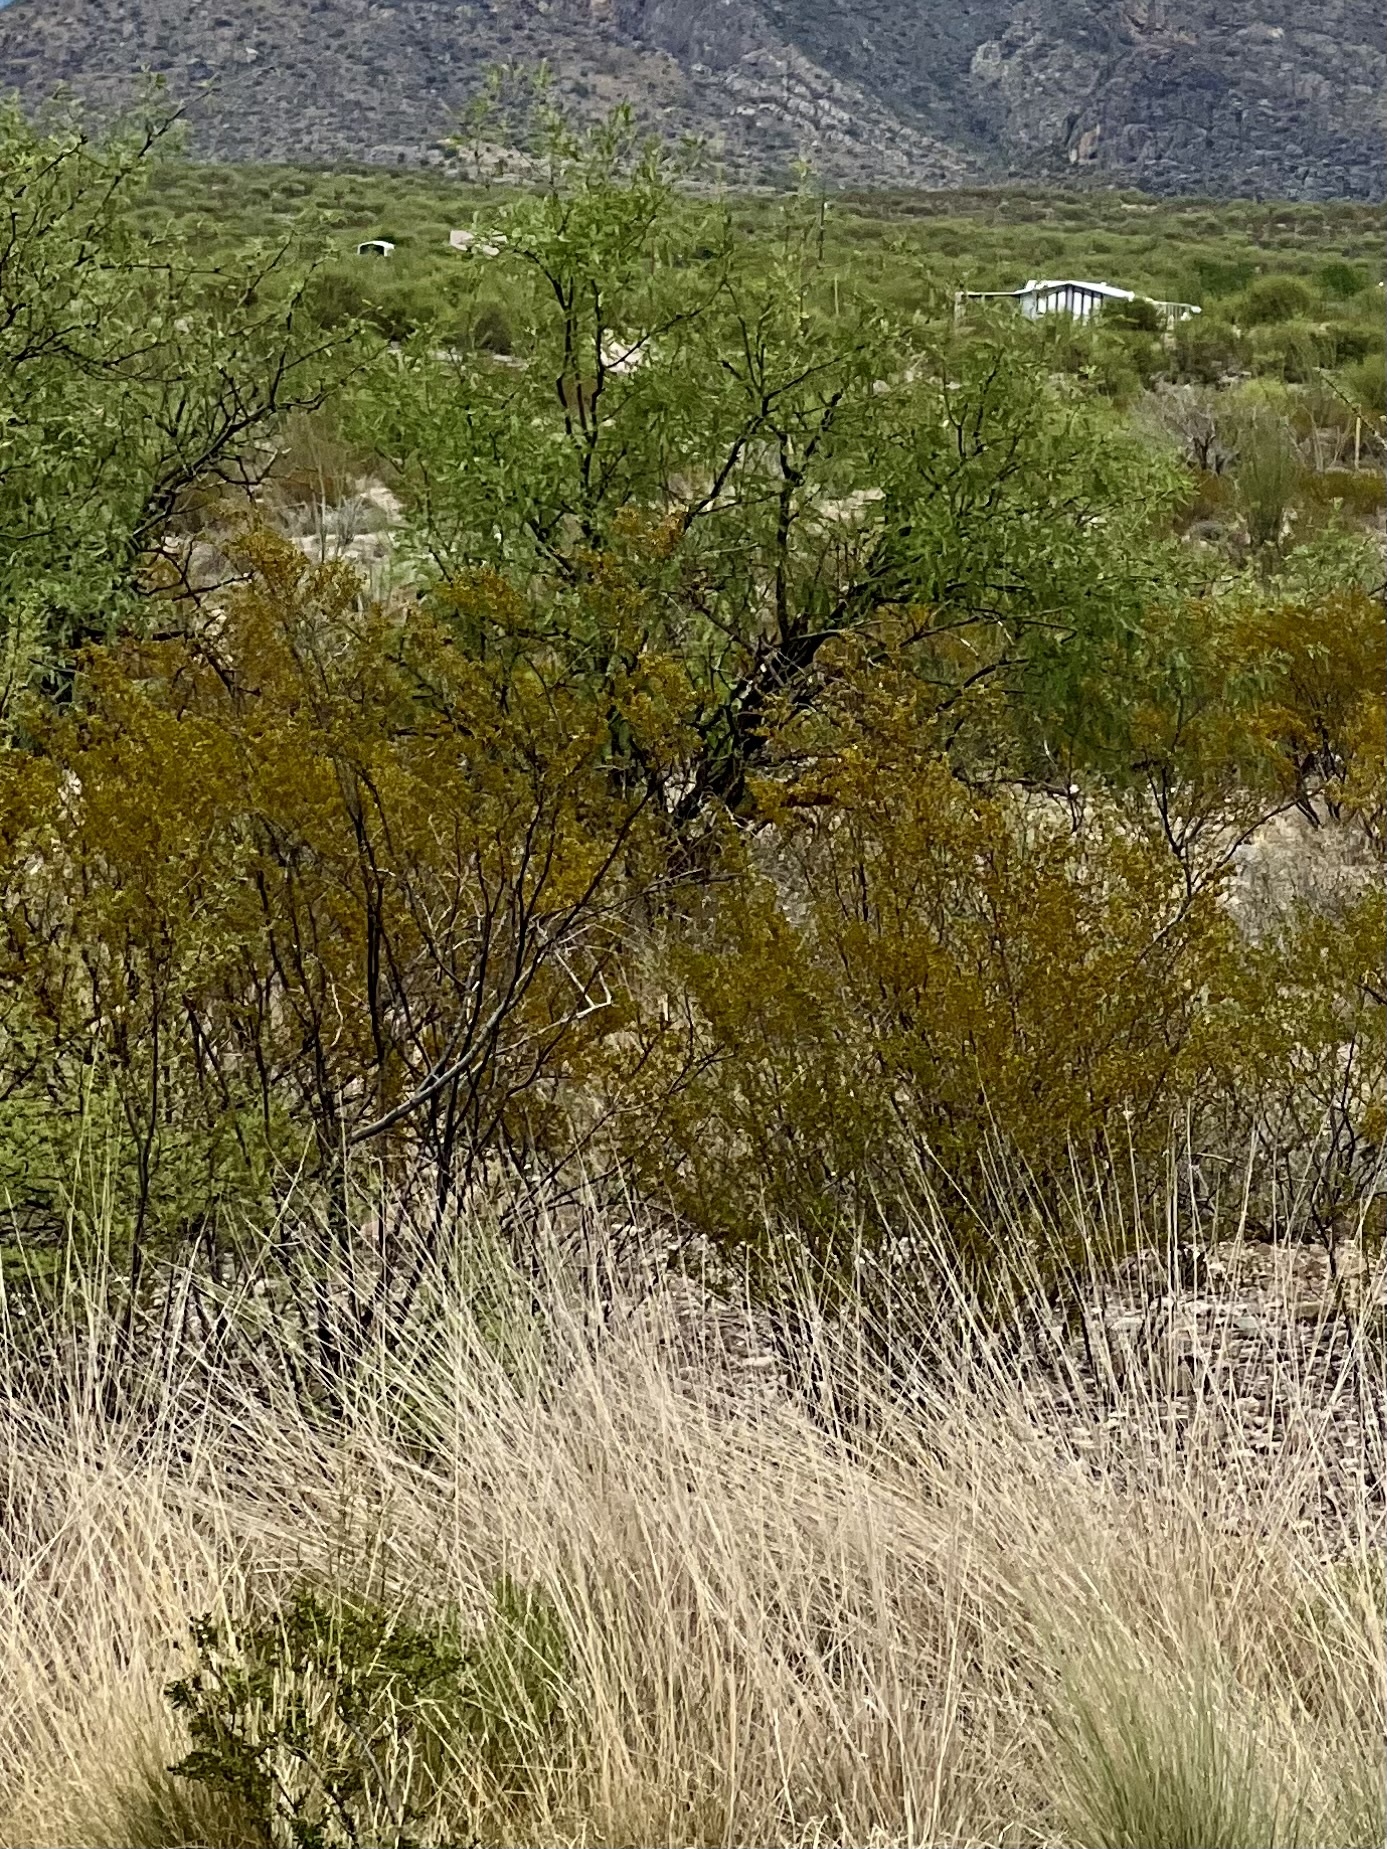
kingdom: Plantae
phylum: Tracheophyta
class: Magnoliopsida
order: Zygophyllales
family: Zygophyllaceae
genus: Larrea
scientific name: Larrea tridentata
